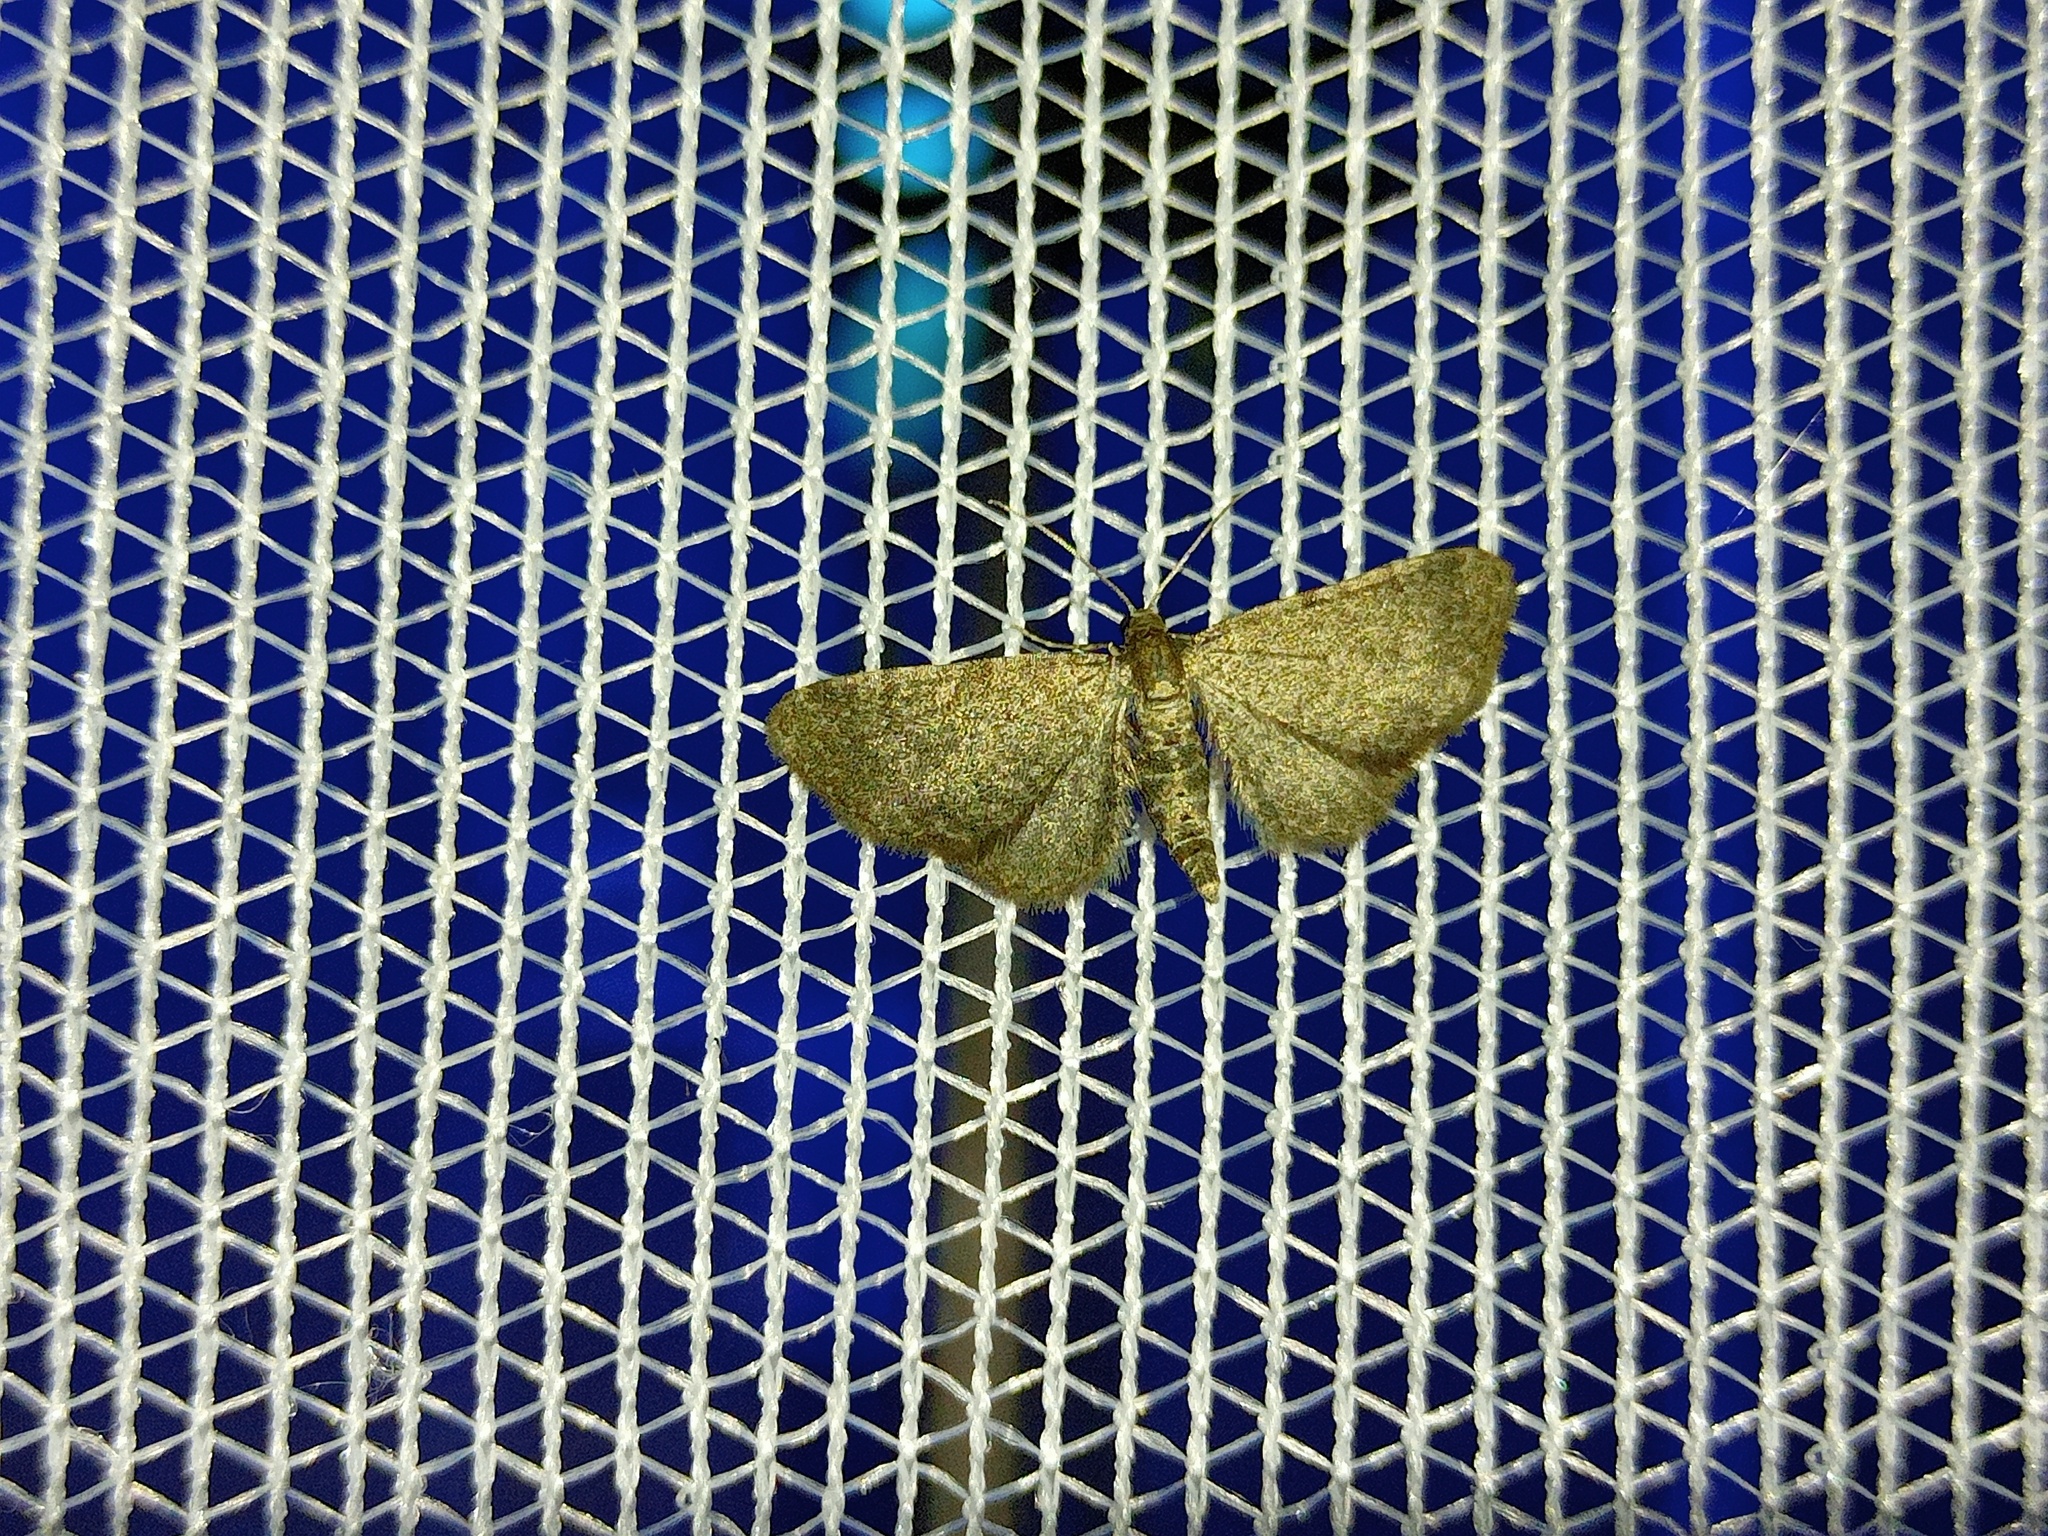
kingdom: Animalia
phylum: Arthropoda
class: Insecta
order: Lepidoptera
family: Geometridae
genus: Eupithecia
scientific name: Eupithecia plumbeolata
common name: Lead-coloured pug
